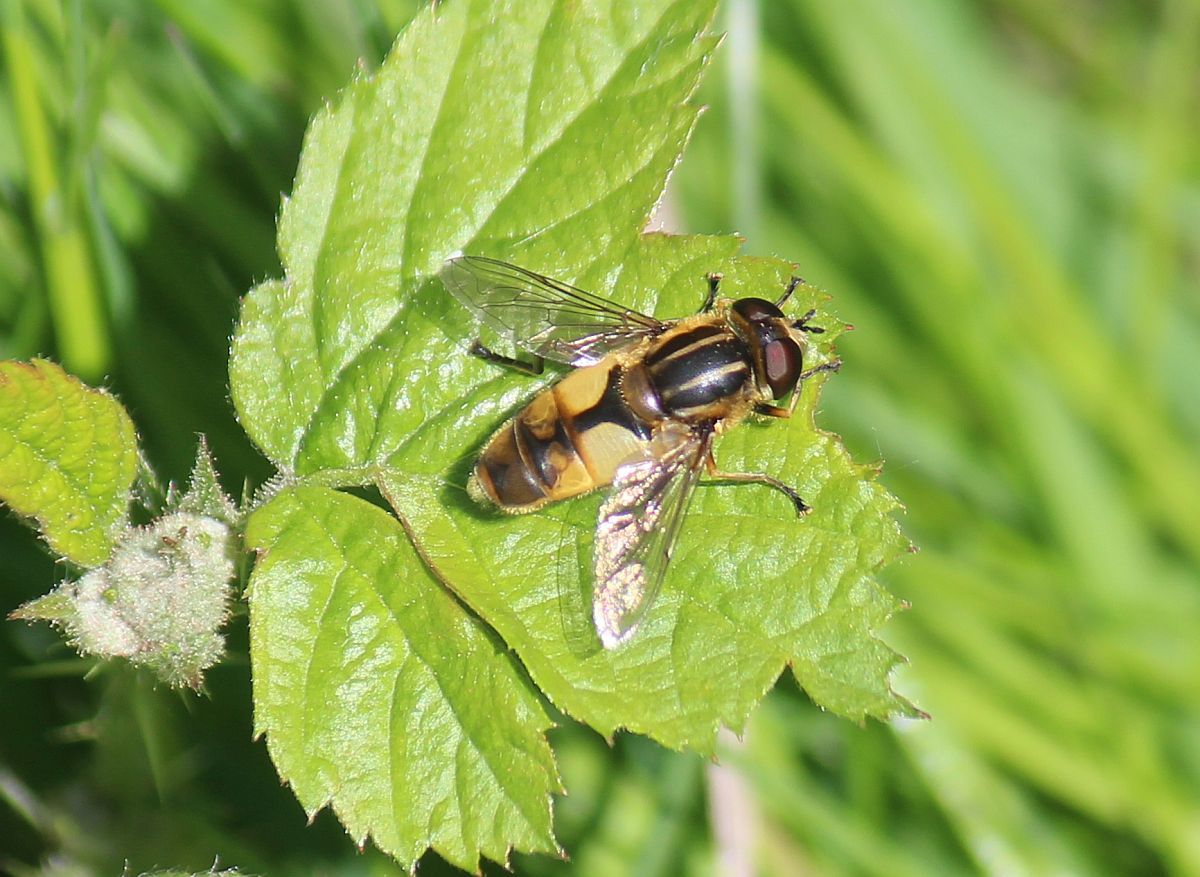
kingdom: Animalia
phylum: Arthropoda
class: Insecta
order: Diptera
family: Syrphidae
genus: Helophilus
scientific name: Helophilus hybridus
